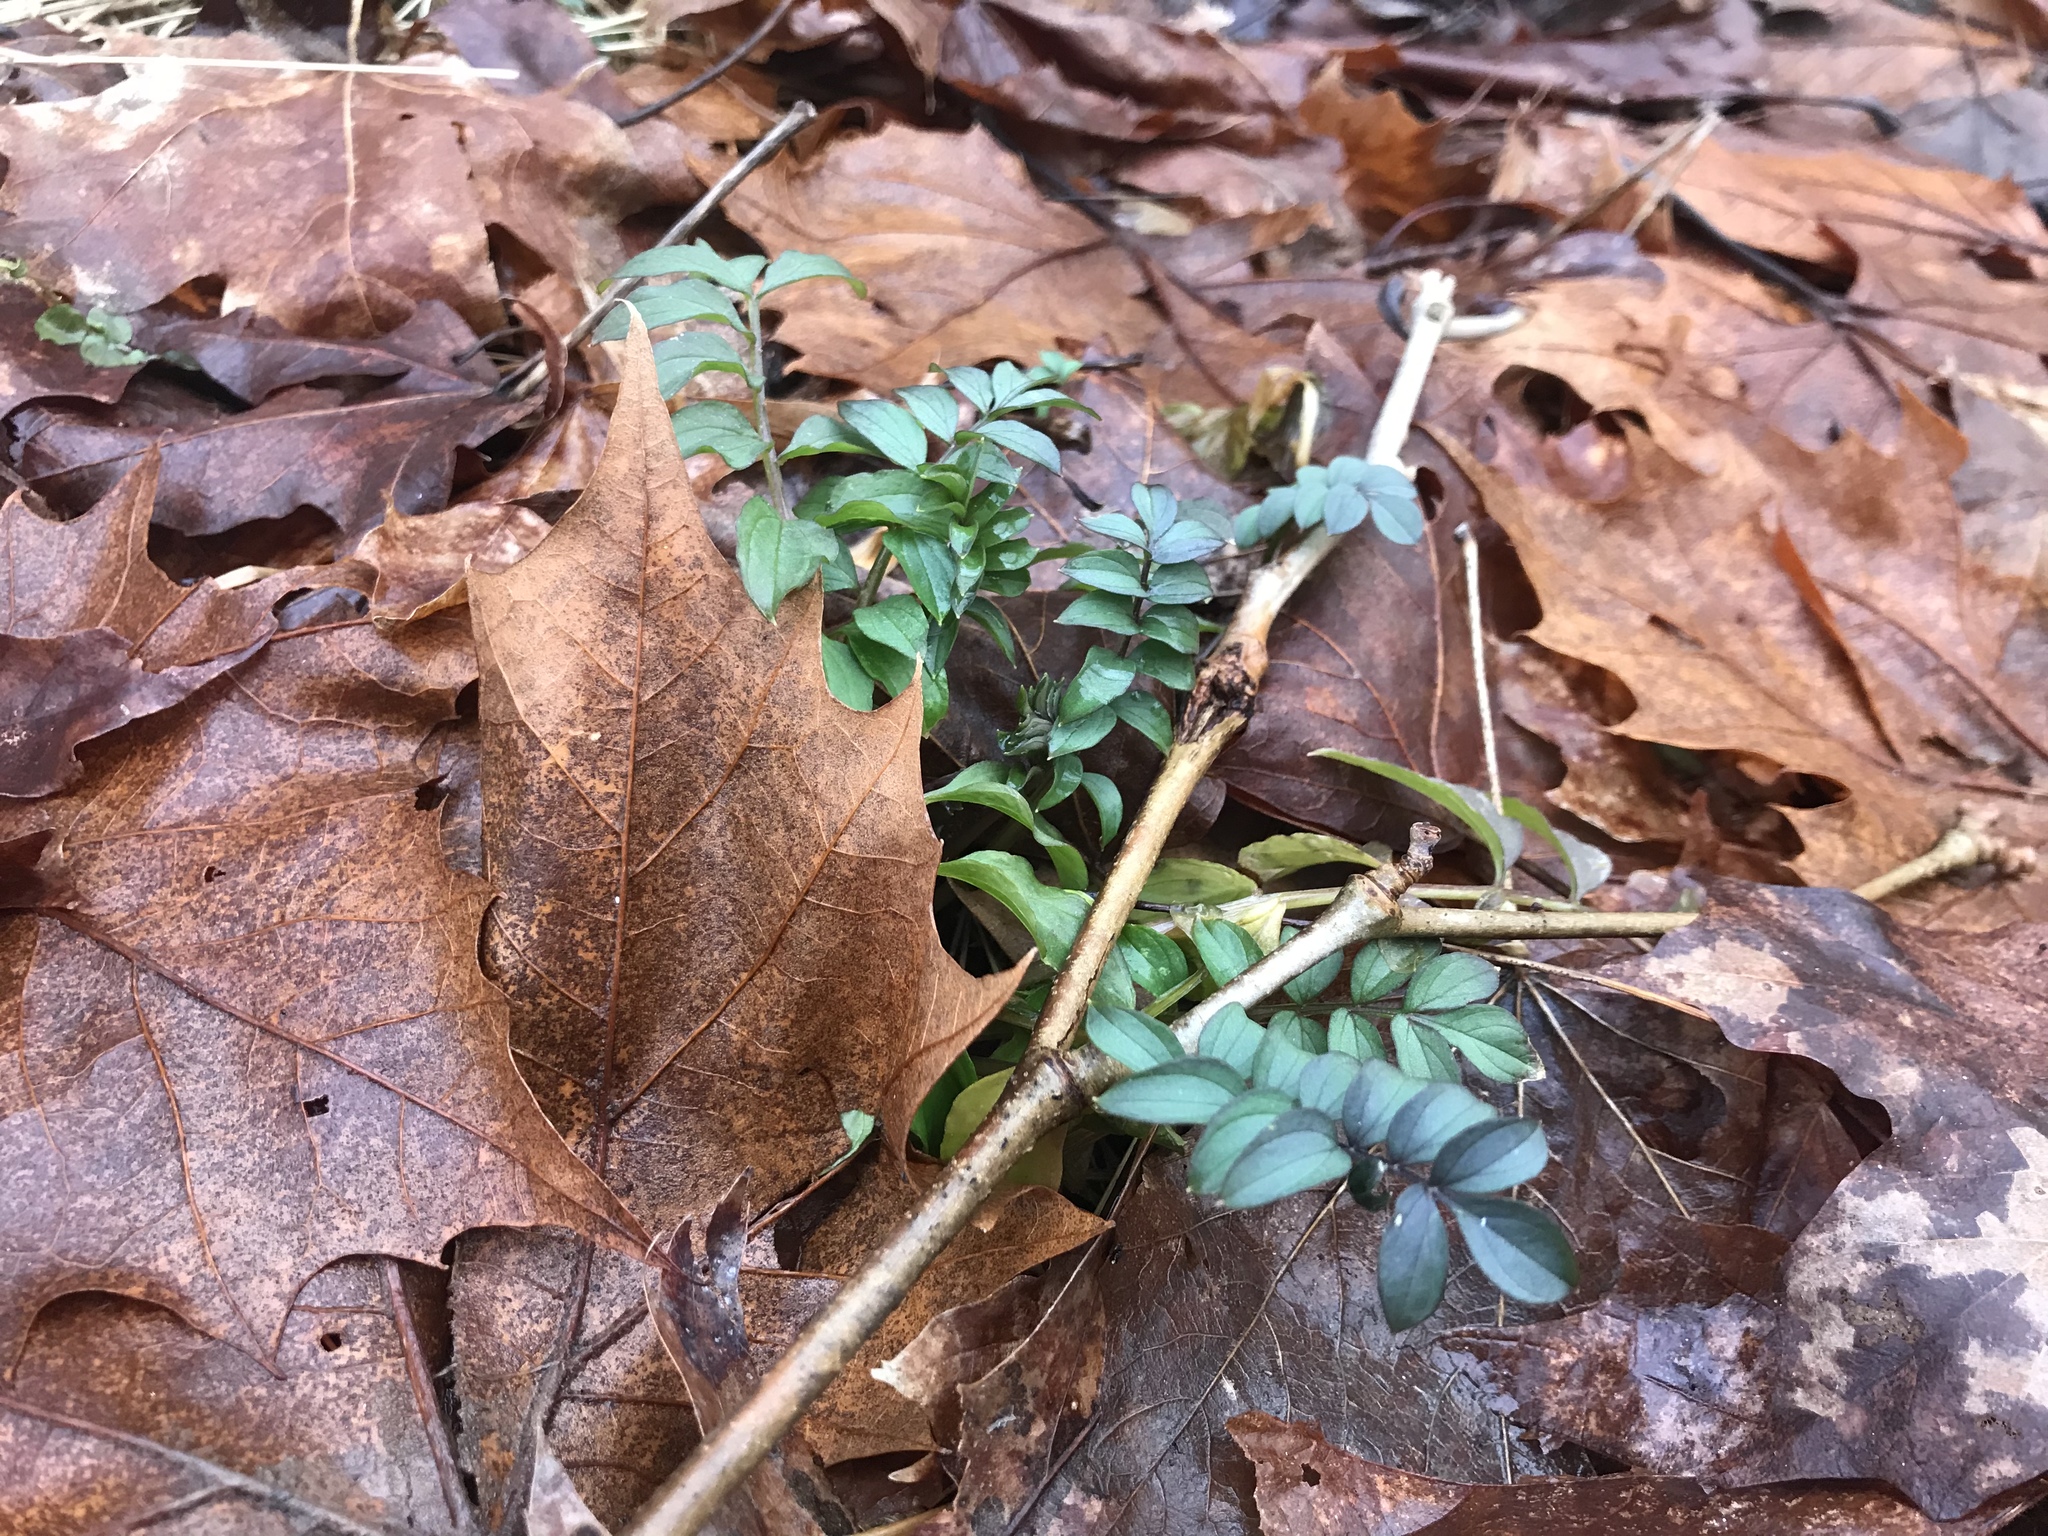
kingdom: Plantae
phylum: Tracheophyta
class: Magnoliopsida
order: Ericales
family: Polemoniaceae
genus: Polemonium
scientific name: Polemonium reptans
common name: Creeping jacob's-ladder
